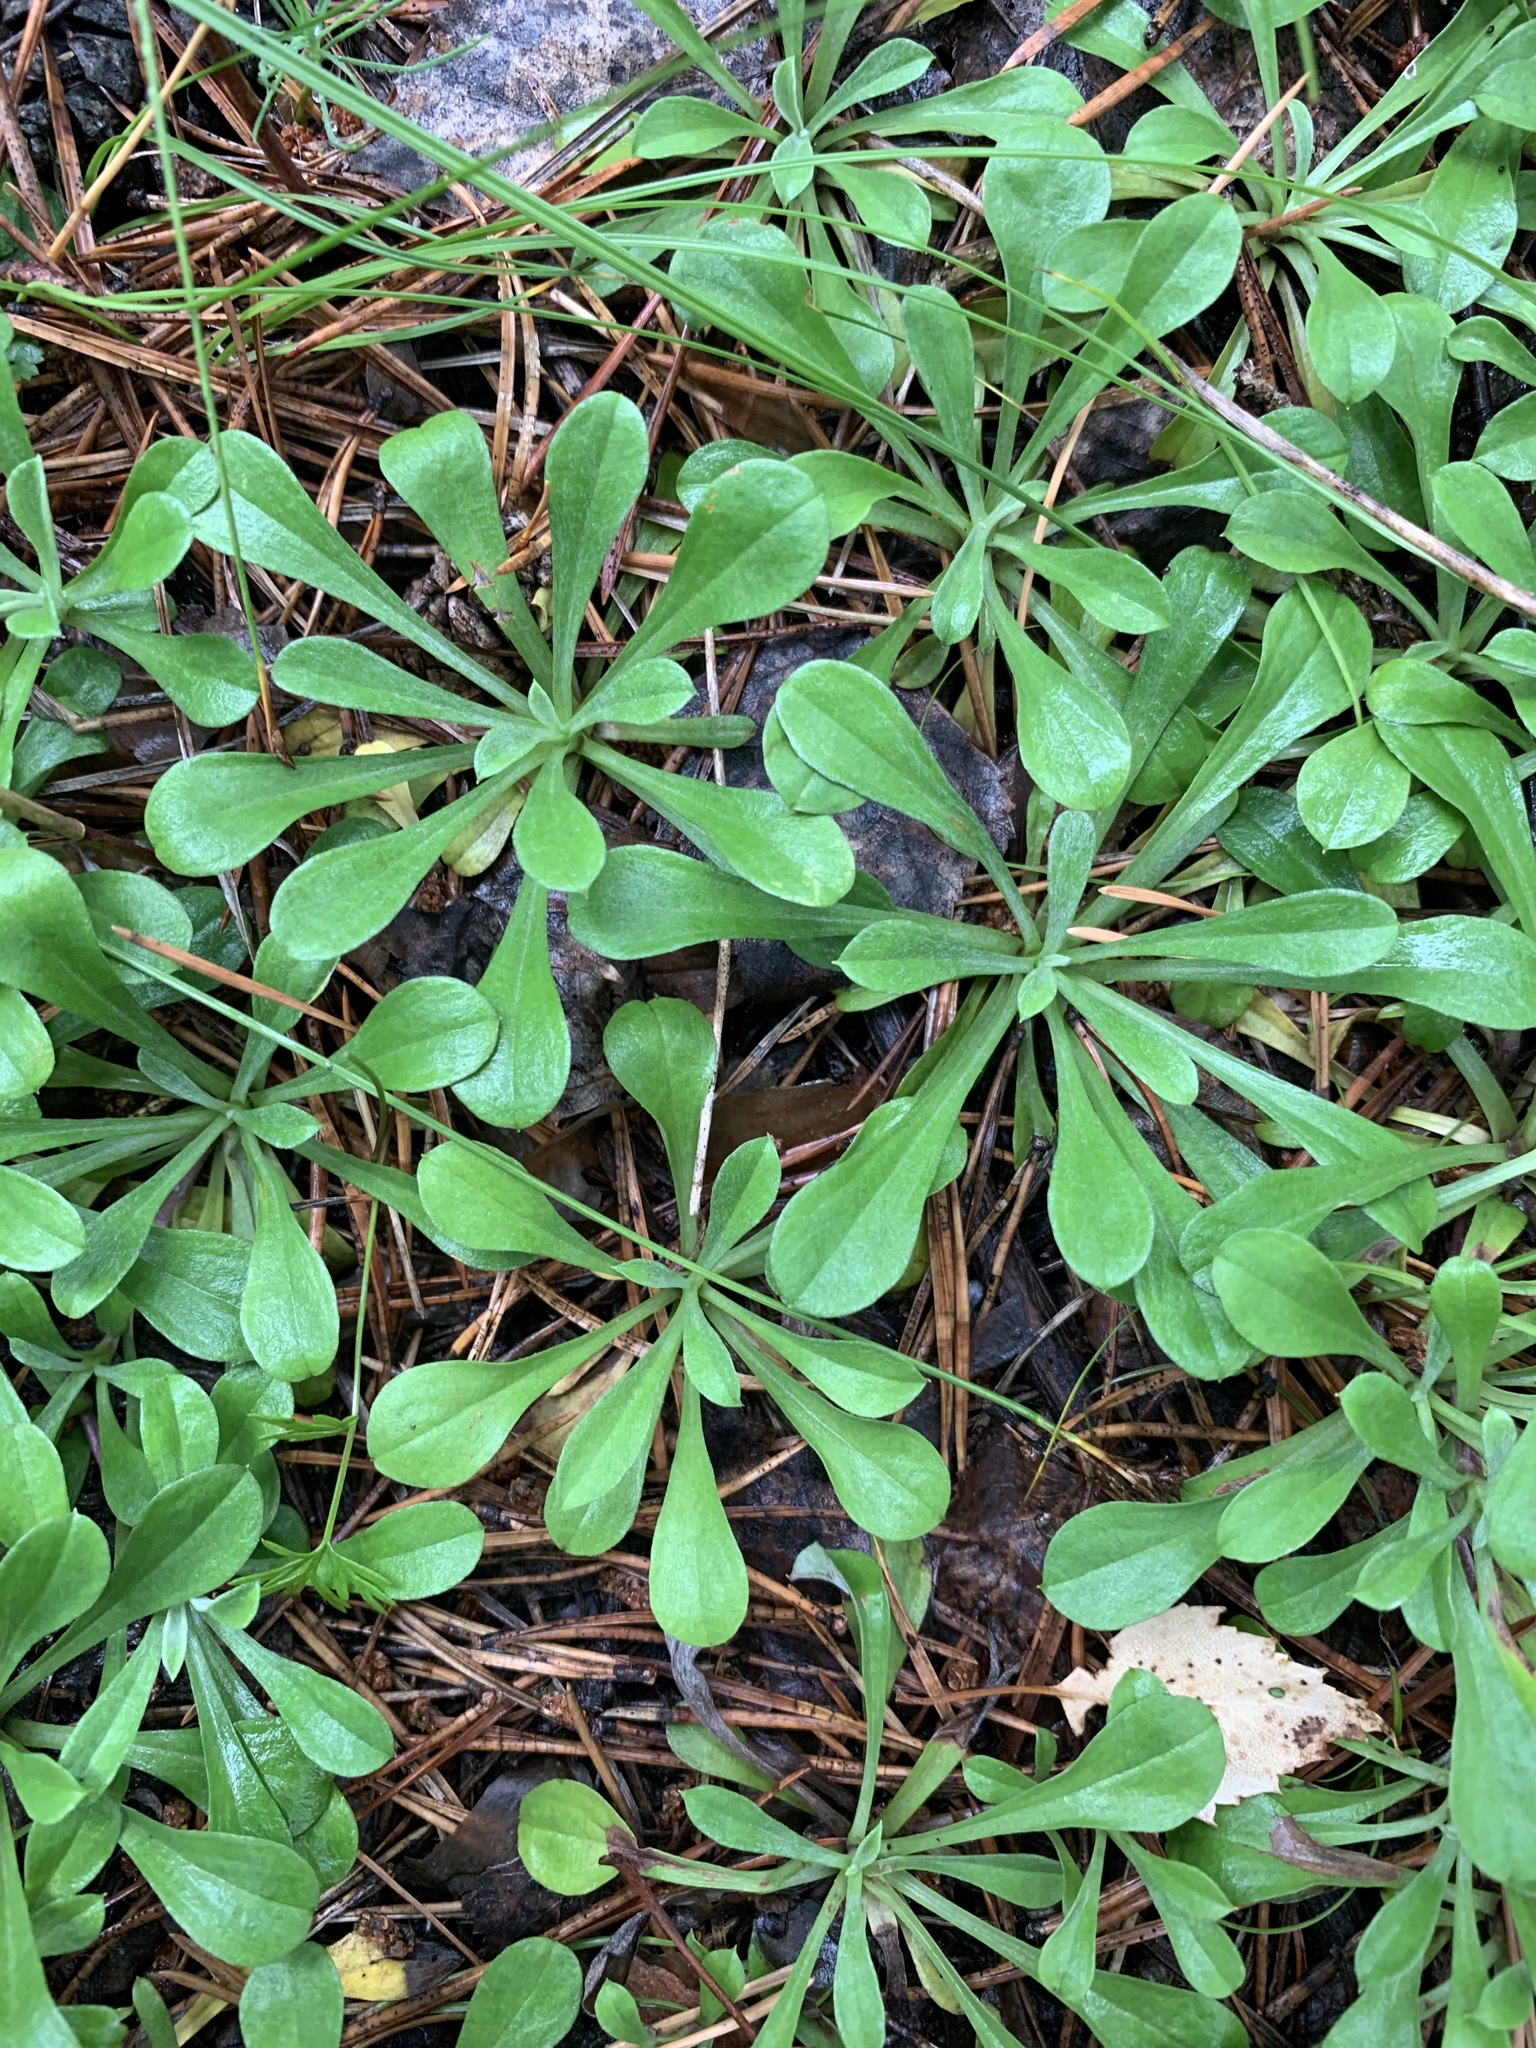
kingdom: Plantae
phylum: Tracheophyta
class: Magnoliopsida
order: Asterales
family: Asteraceae
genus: Antennaria
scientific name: Antennaria dioica
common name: Mountain everlasting
